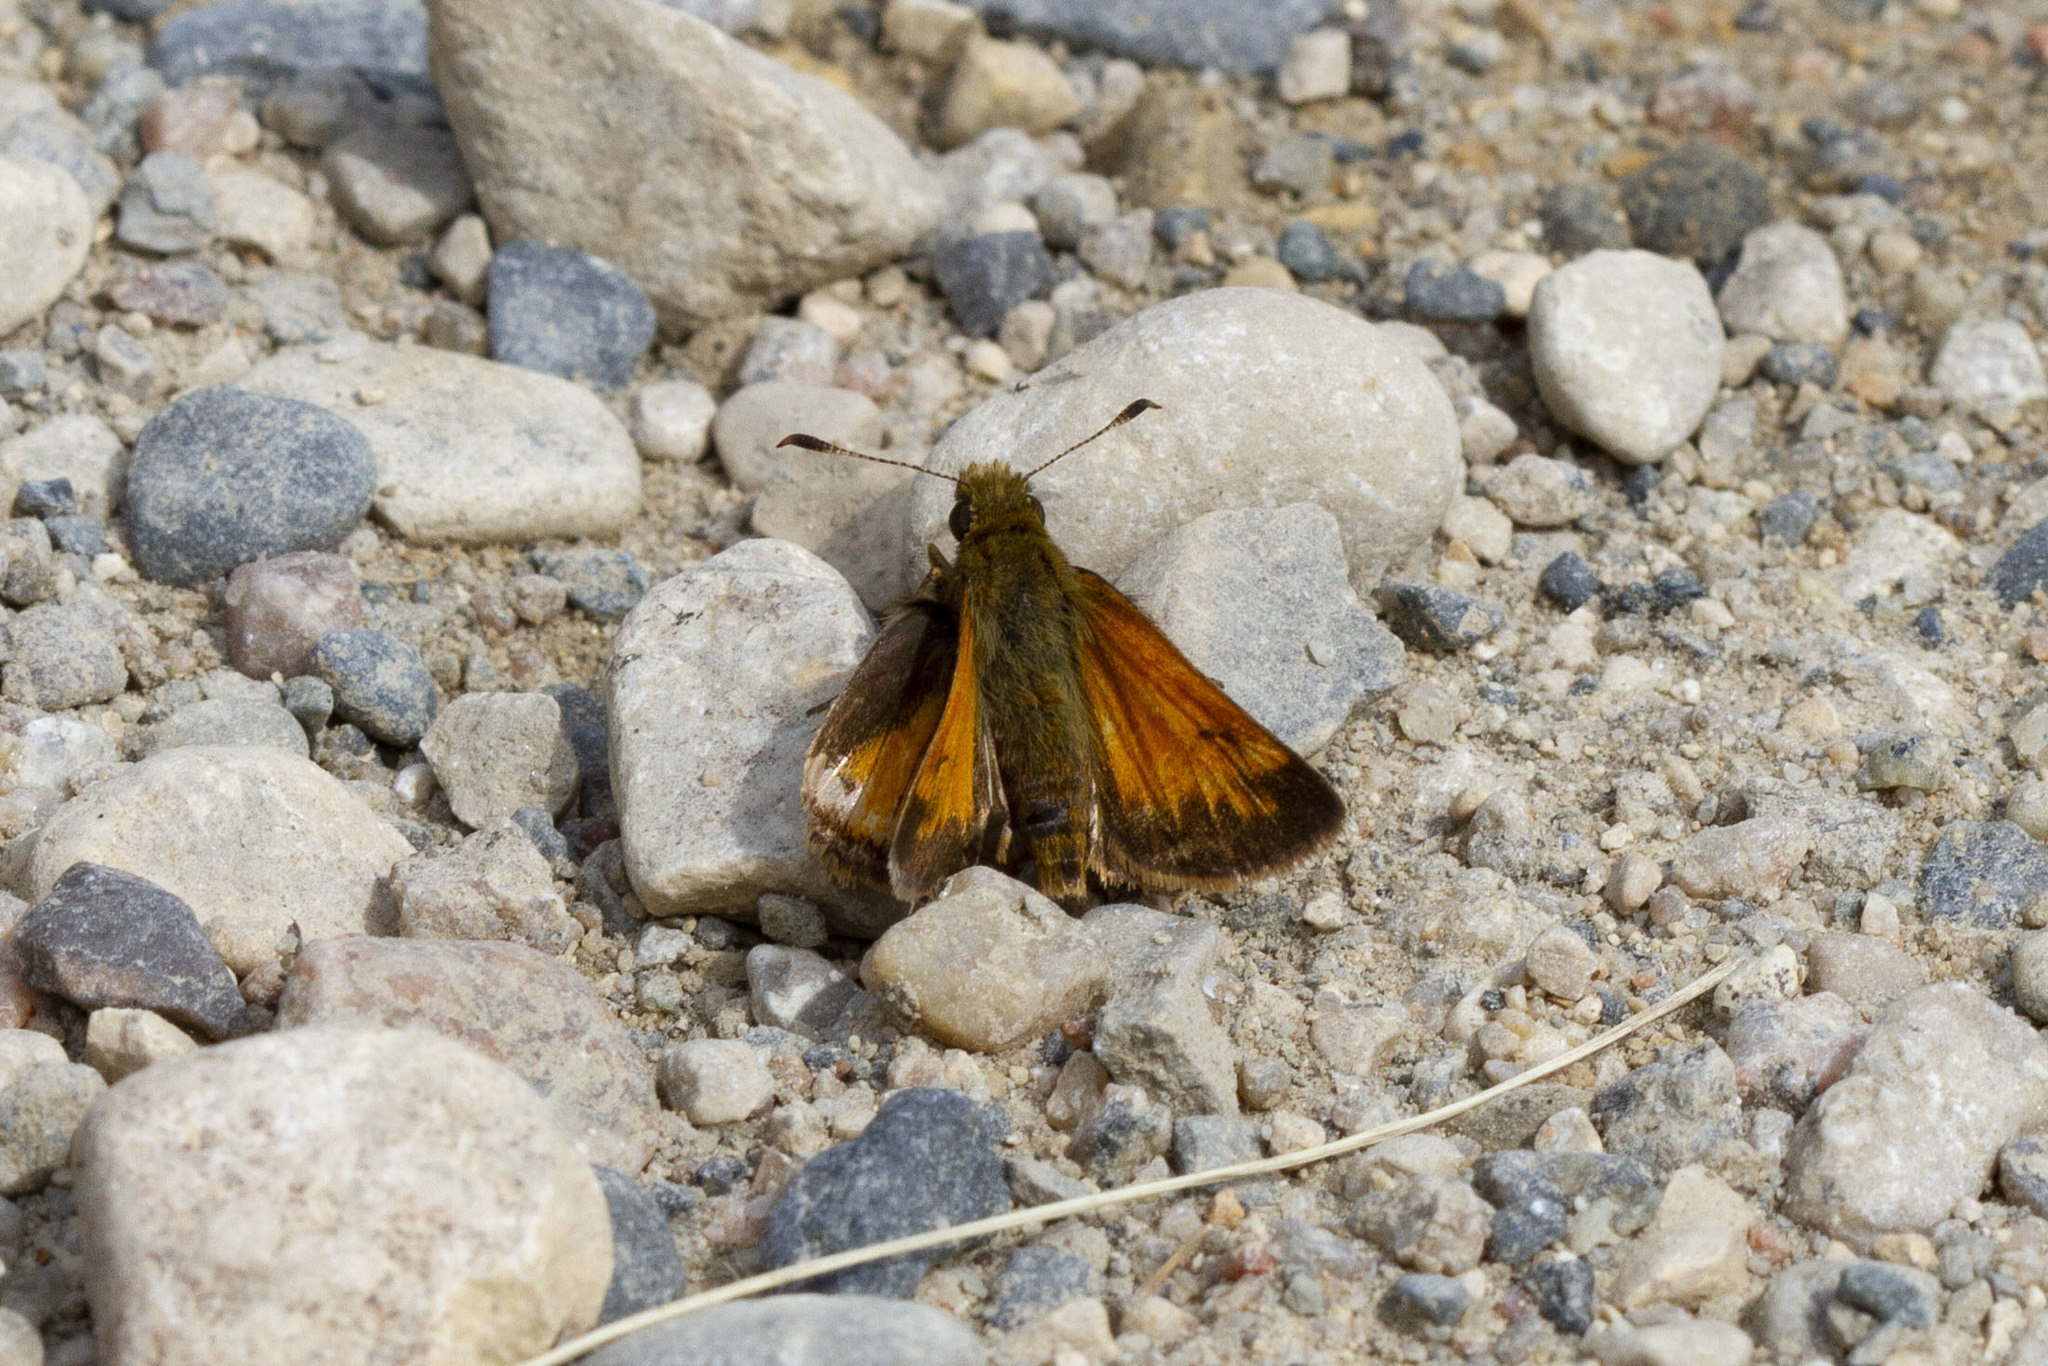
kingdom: Animalia
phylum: Arthropoda
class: Insecta
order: Lepidoptera
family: Hesperiidae
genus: Lon
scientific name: Lon hobomok
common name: Hobomok skipper
